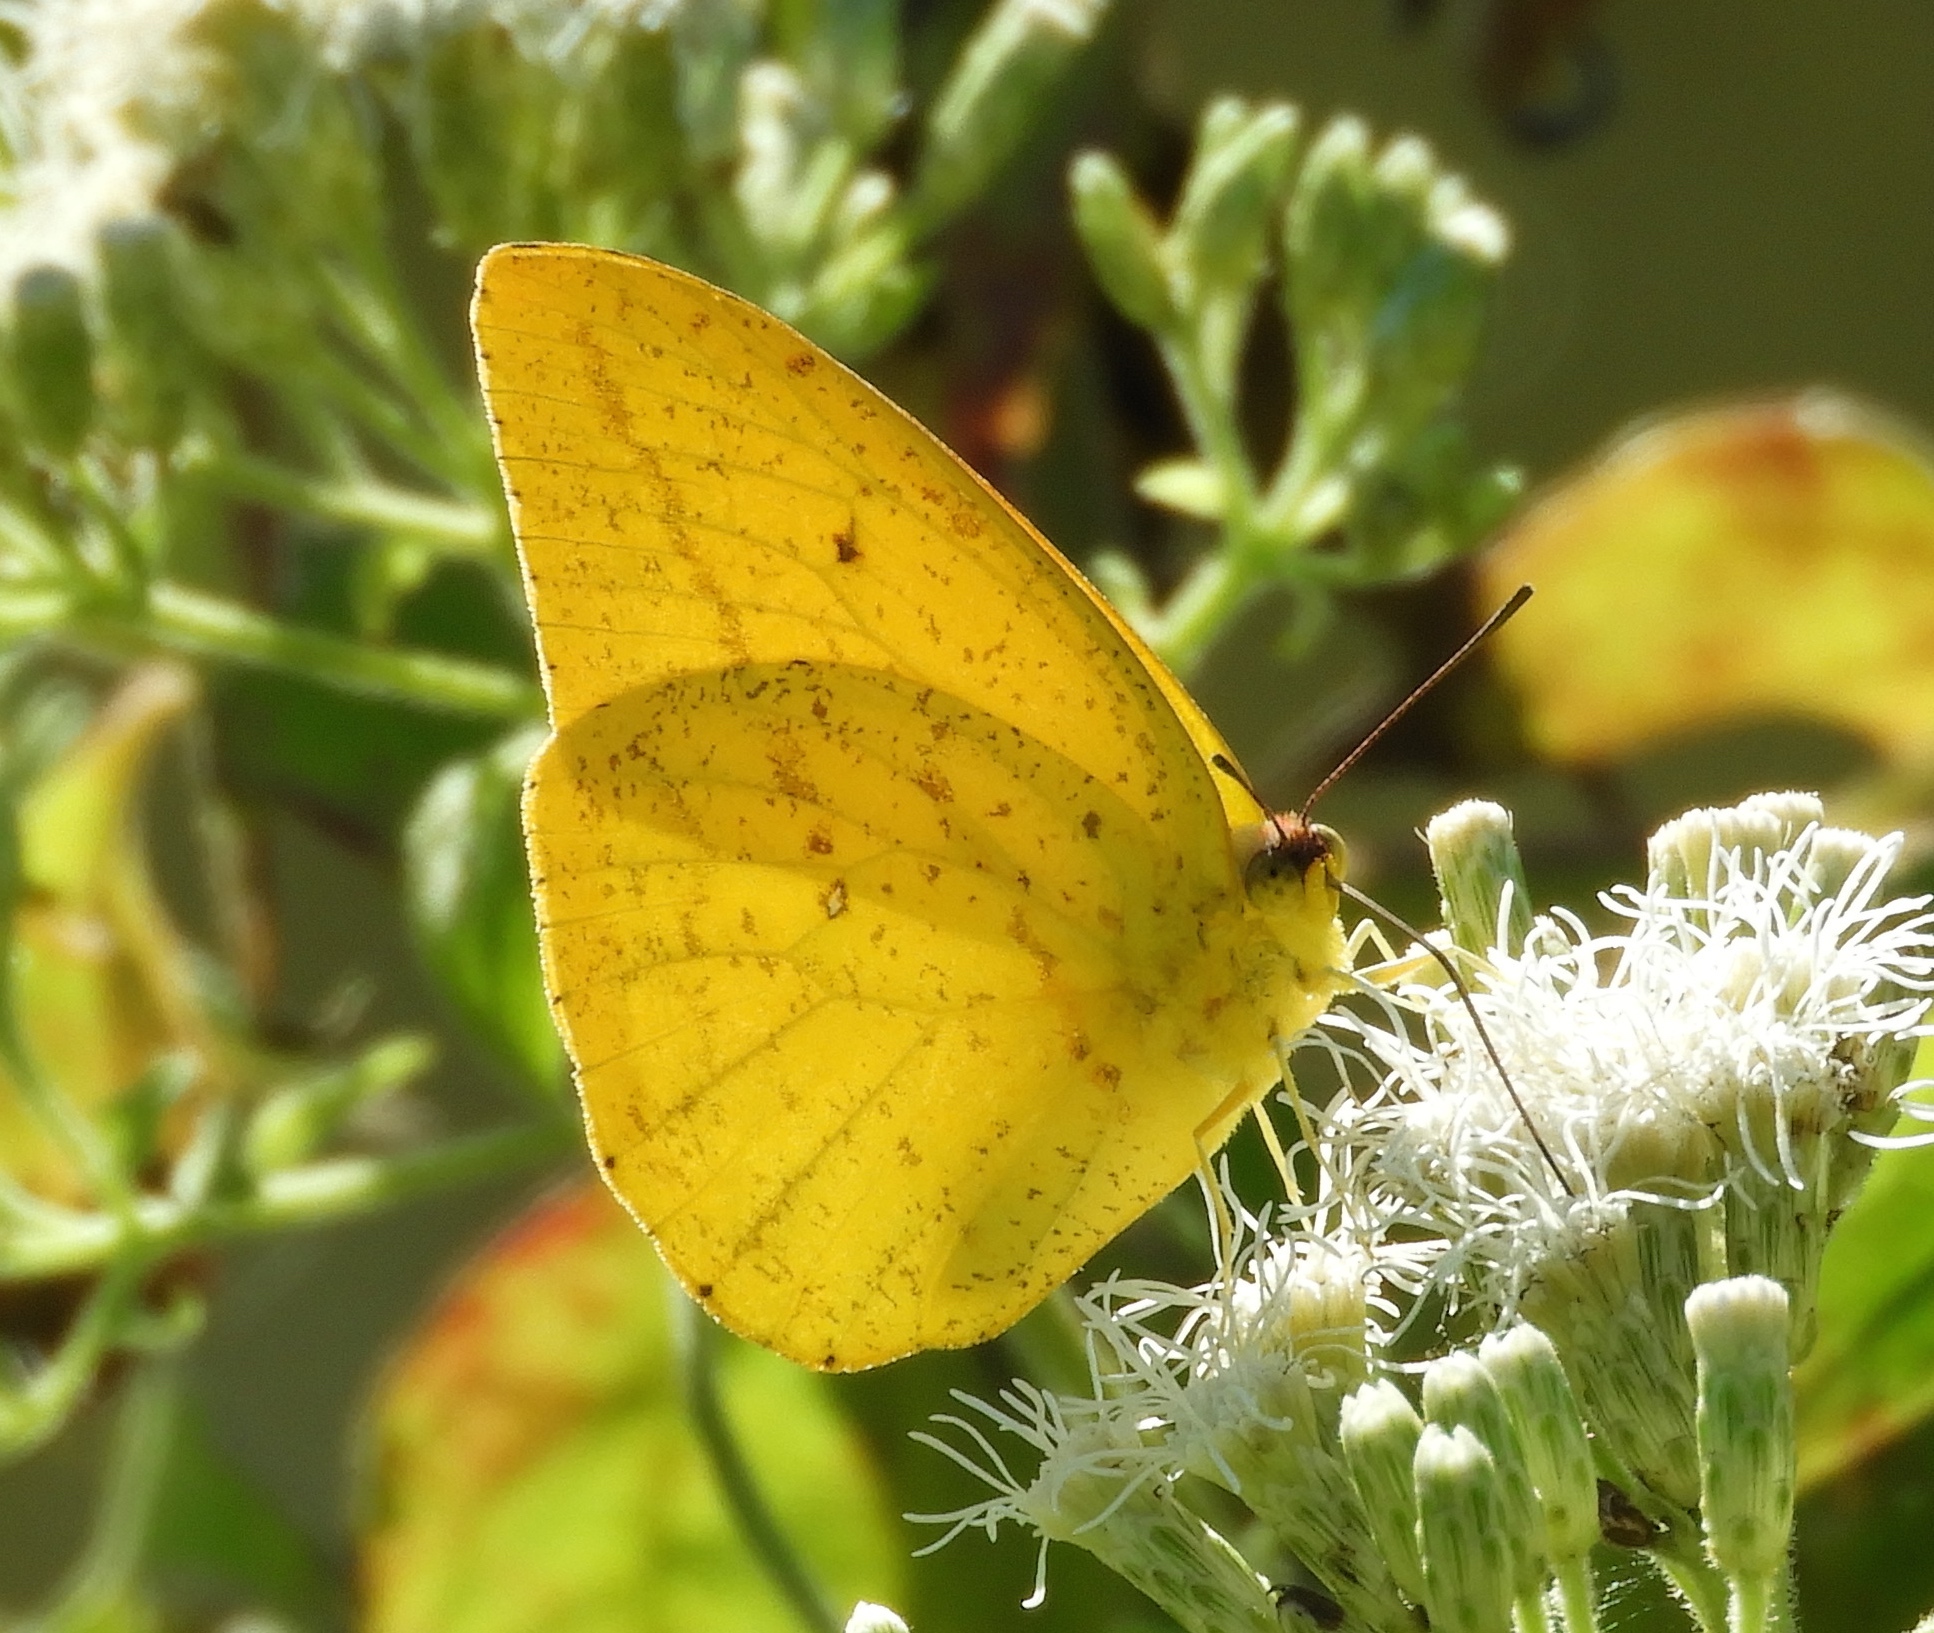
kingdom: Animalia
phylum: Arthropoda
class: Insecta
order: Lepidoptera
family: Pieridae
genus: Phoebis
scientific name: Phoebis agarithe
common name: Large orange sulphur
